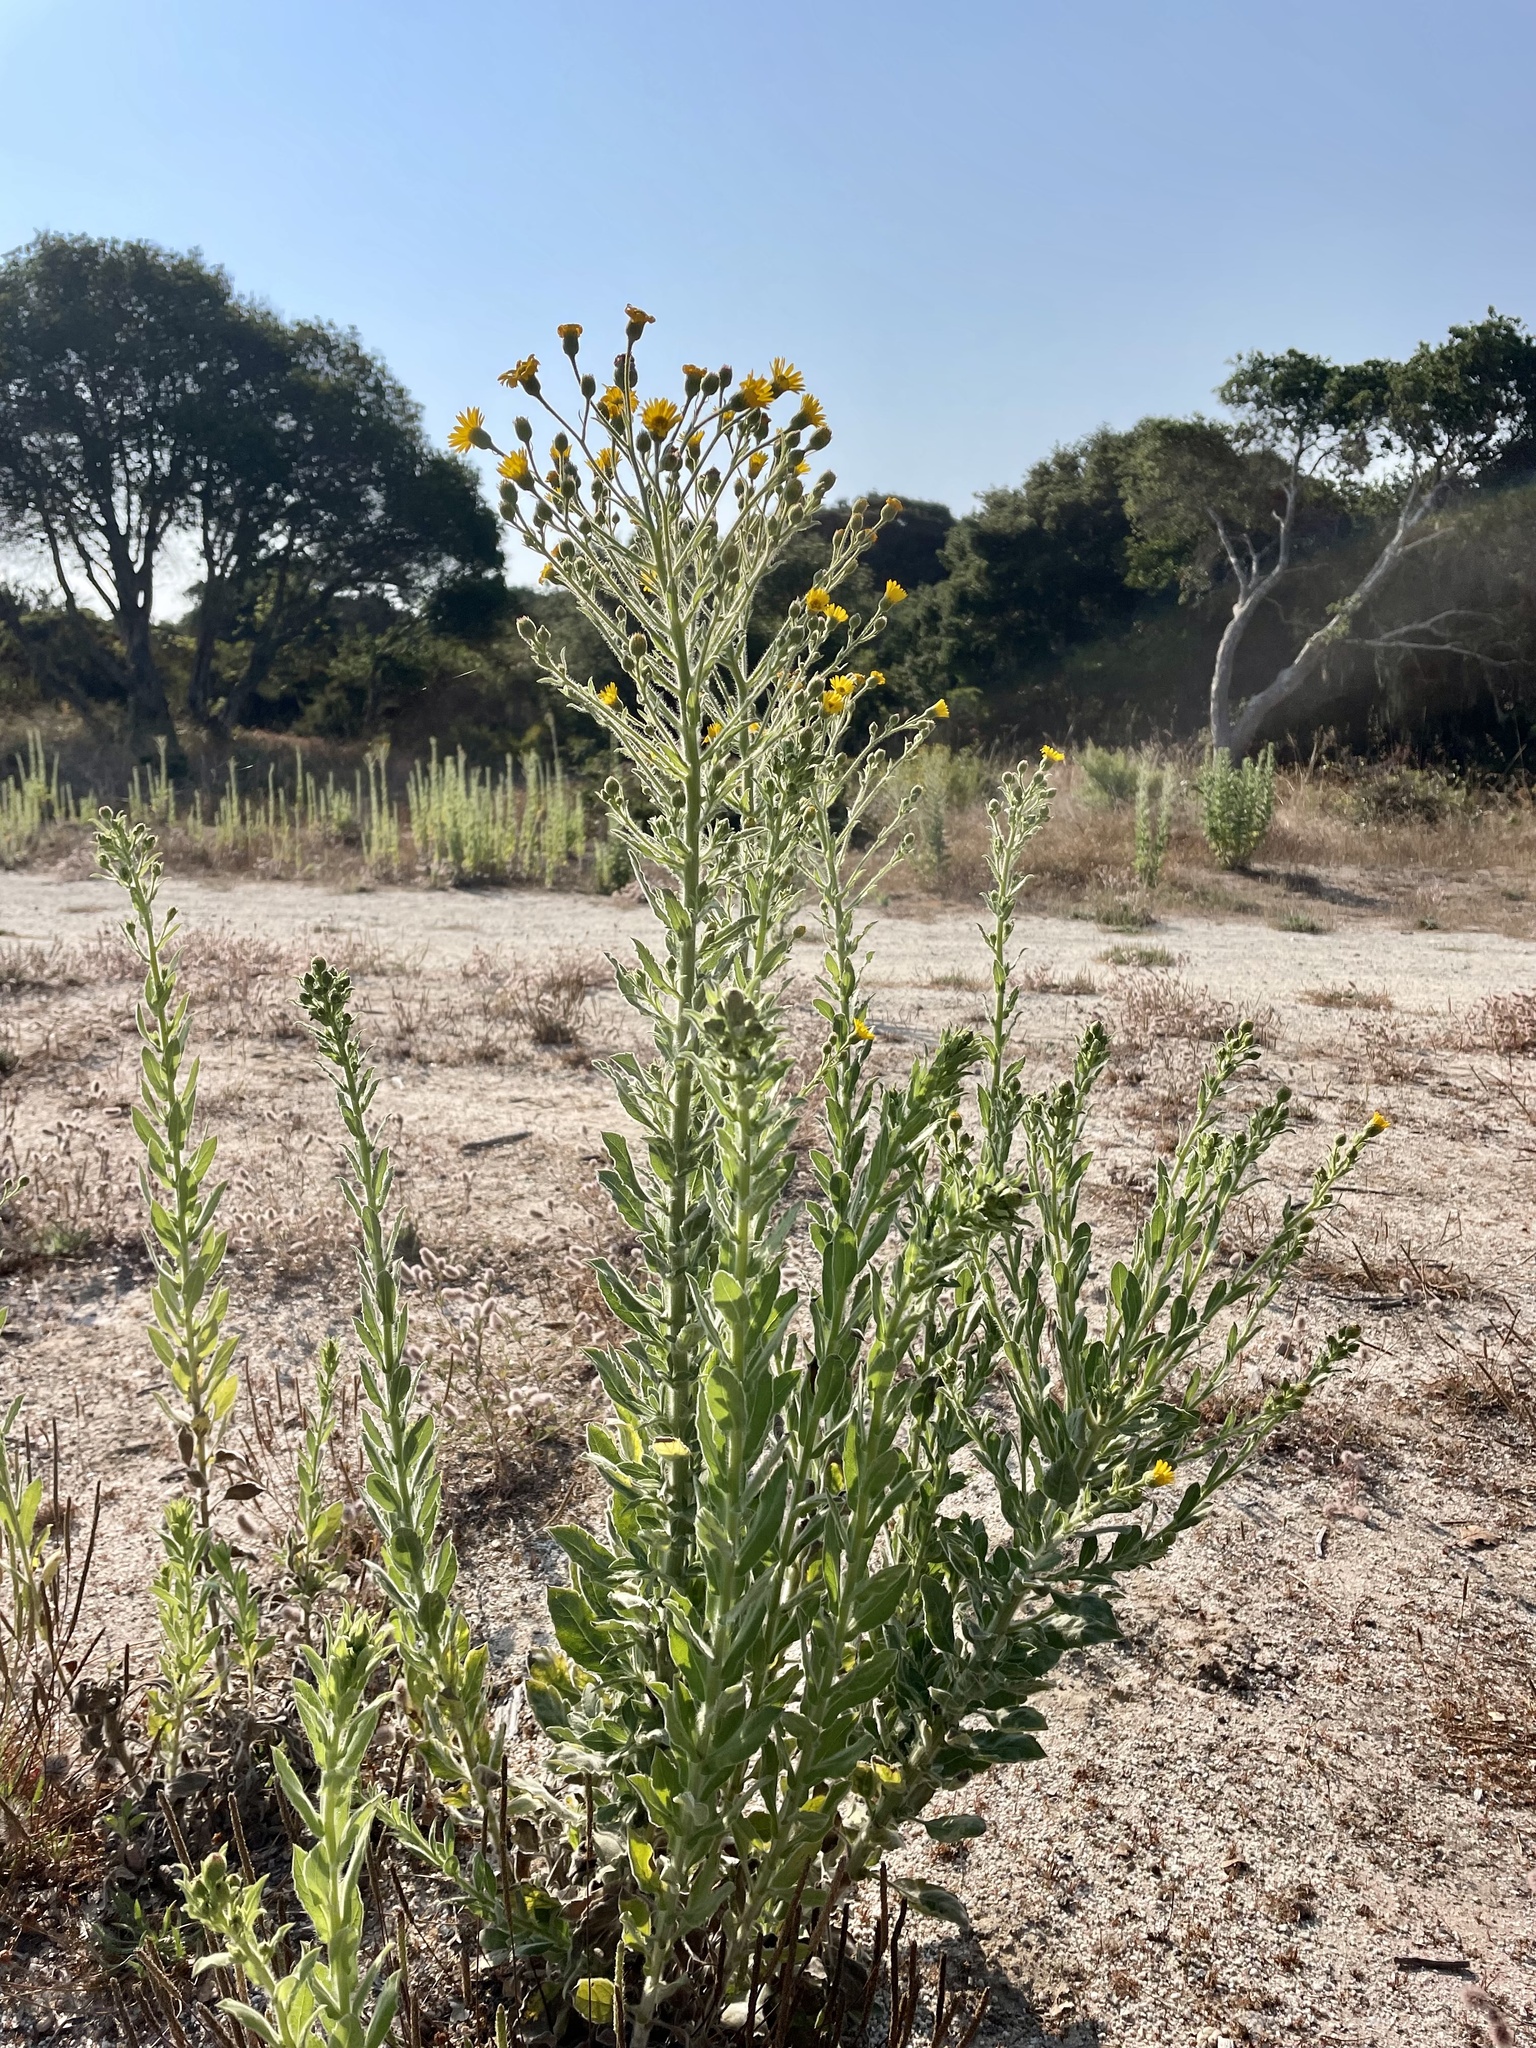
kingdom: Plantae
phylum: Tracheophyta
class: Magnoliopsida
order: Asterales
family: Asteraceae
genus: Heterotheca
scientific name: Heterotheca grandiflora
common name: Telegraphweed
